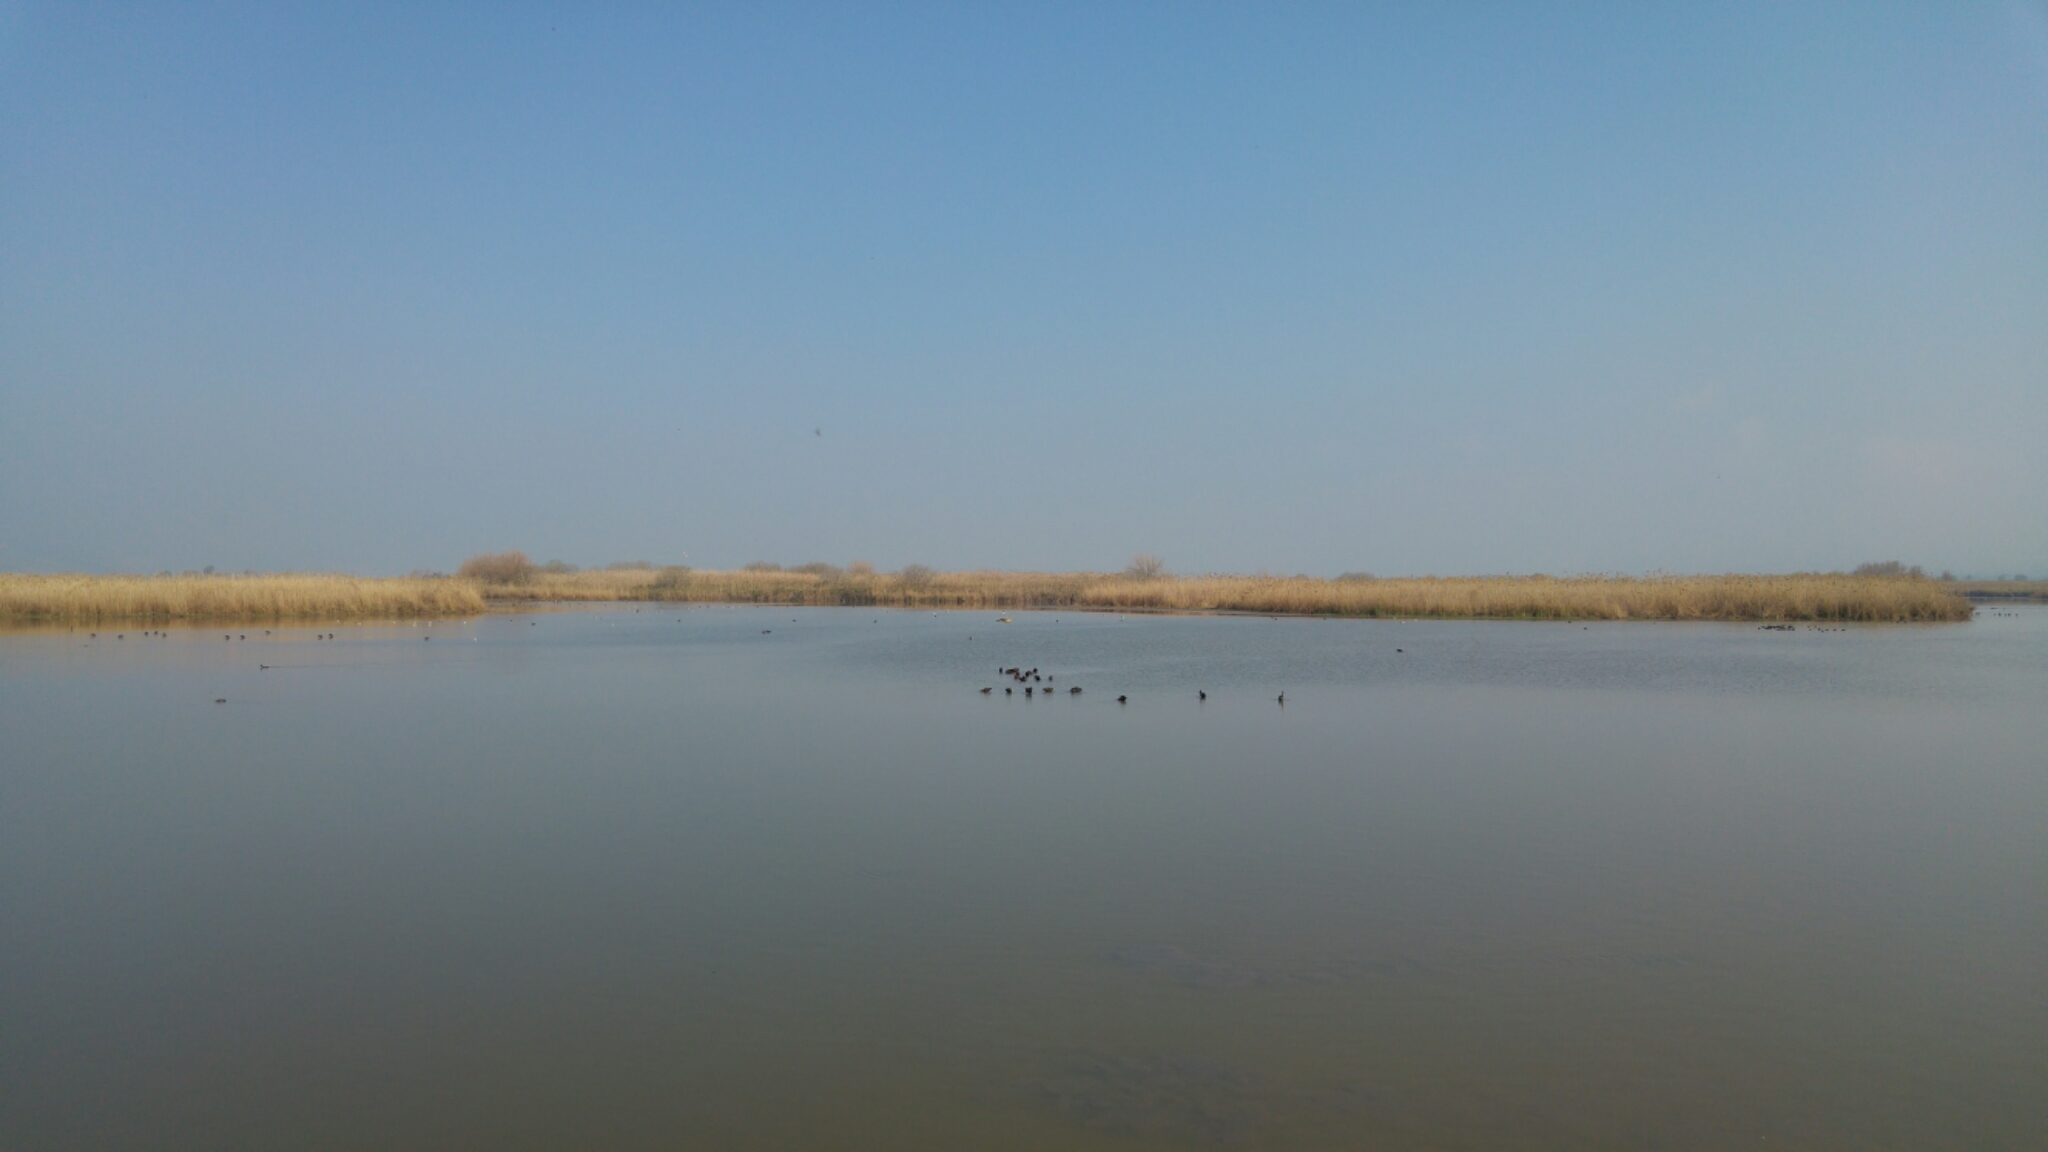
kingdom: Animalia
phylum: Chordata
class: Aves
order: Pelecaniformes
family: Threskiornithidae
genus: Plegadis
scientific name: Plegadis falcinellus
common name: Glossy ibis
